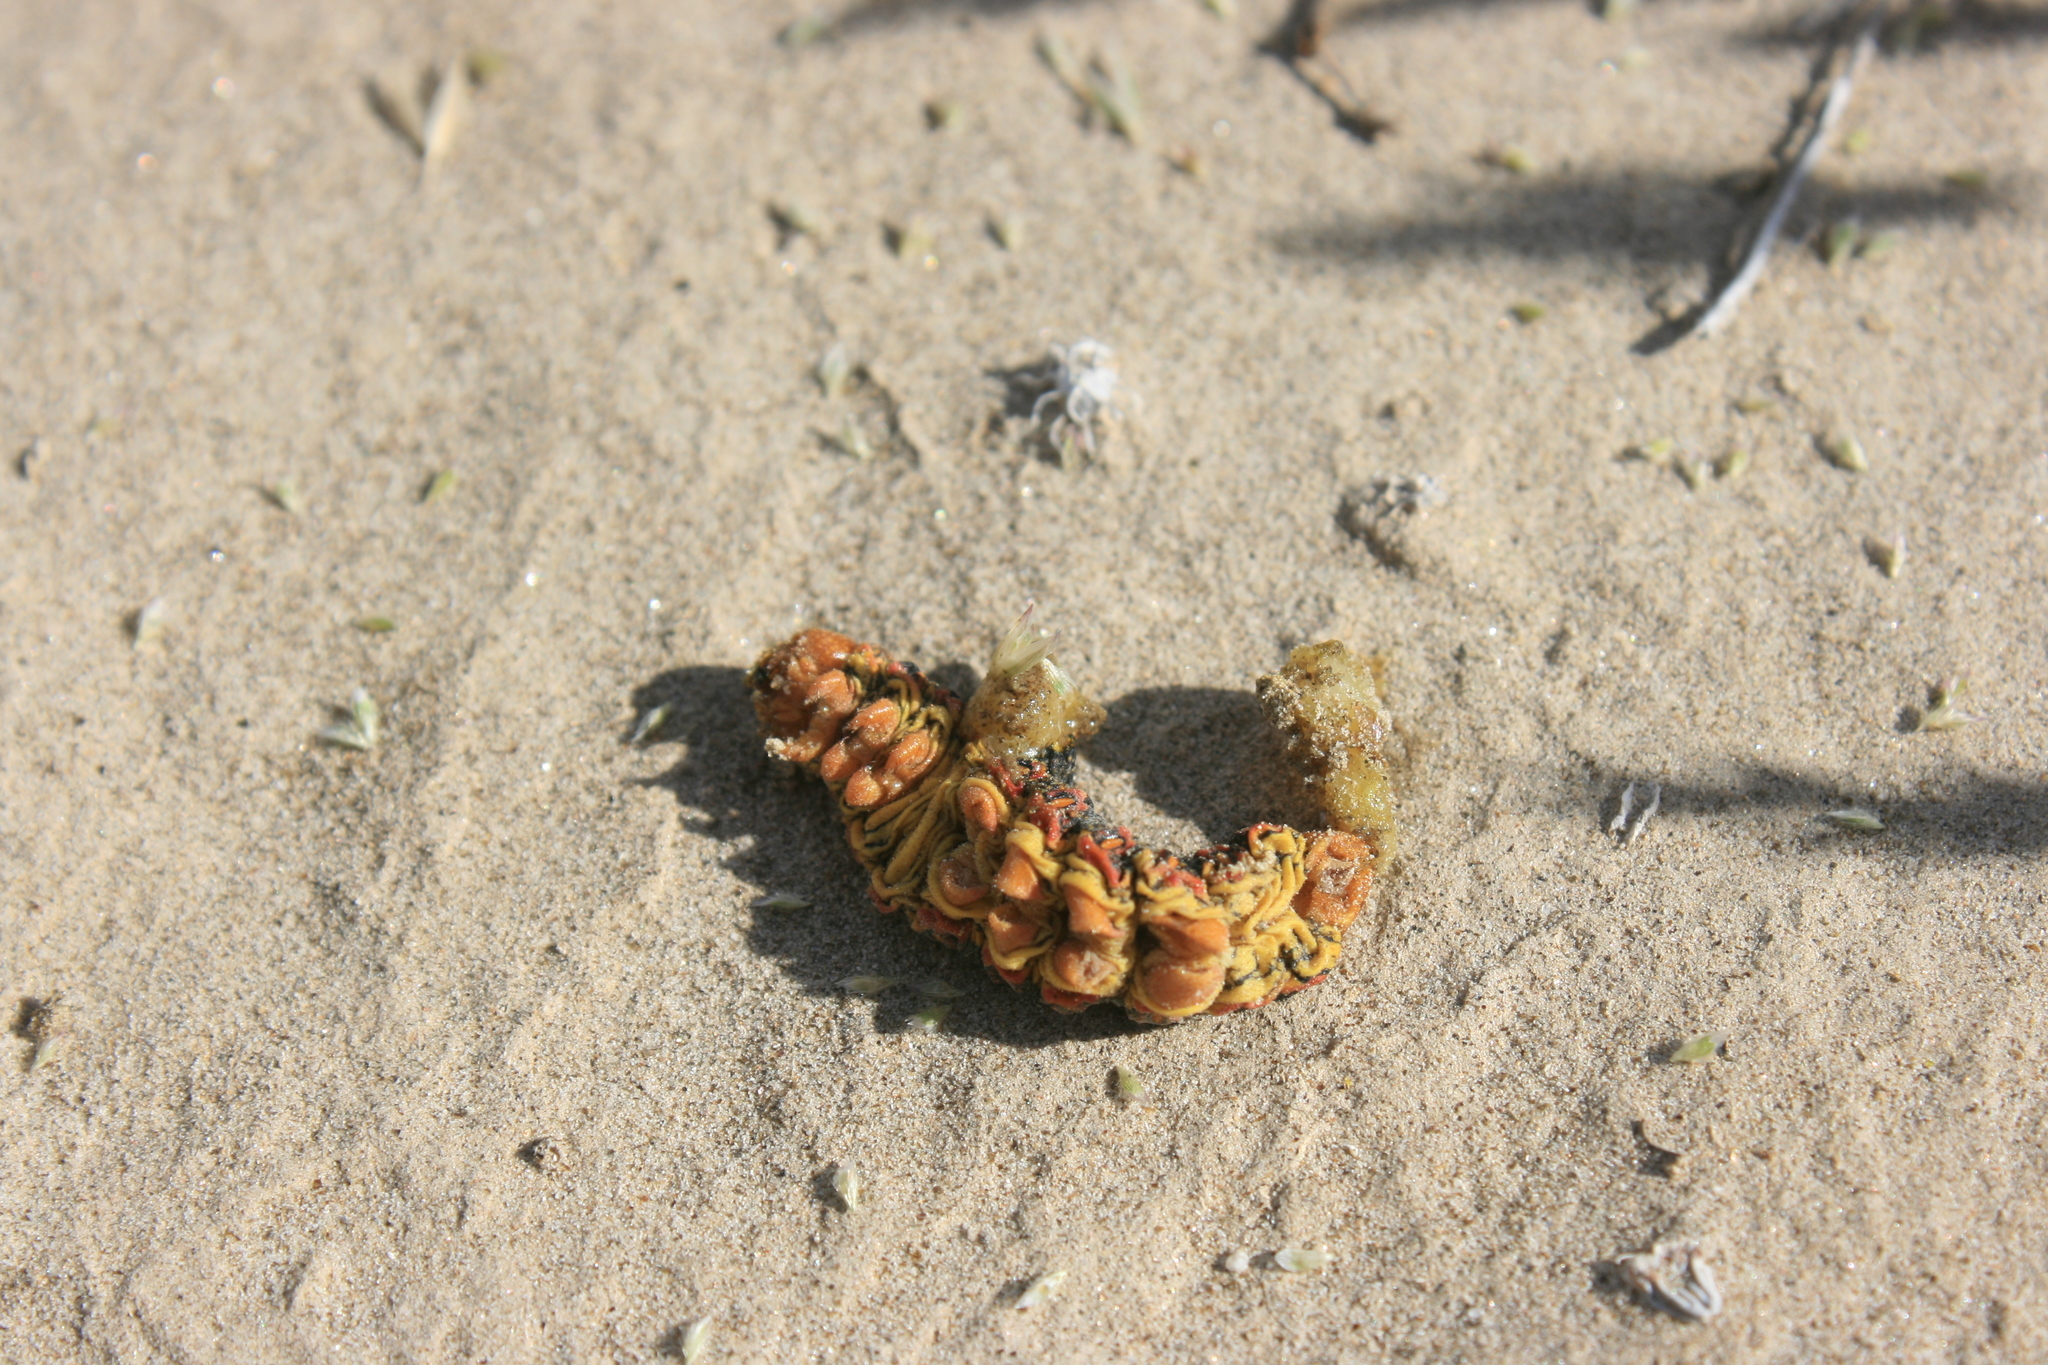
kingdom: Animalia
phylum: Arthropoda
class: Insecta
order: Lepidoptera
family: Sphingidae
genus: Hyles
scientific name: Hyles lineata
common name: White-lined sphinx
